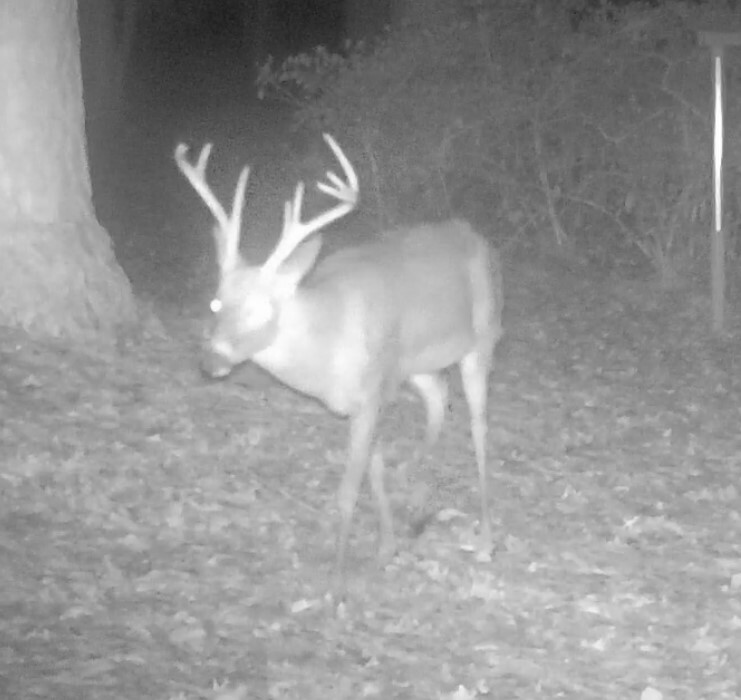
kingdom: Animalia
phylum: Chordata
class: Mammalia
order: Artiodactyla
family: Cervidae
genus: Odocoileus
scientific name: Odocoileus virginianus
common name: White-tailed deer
